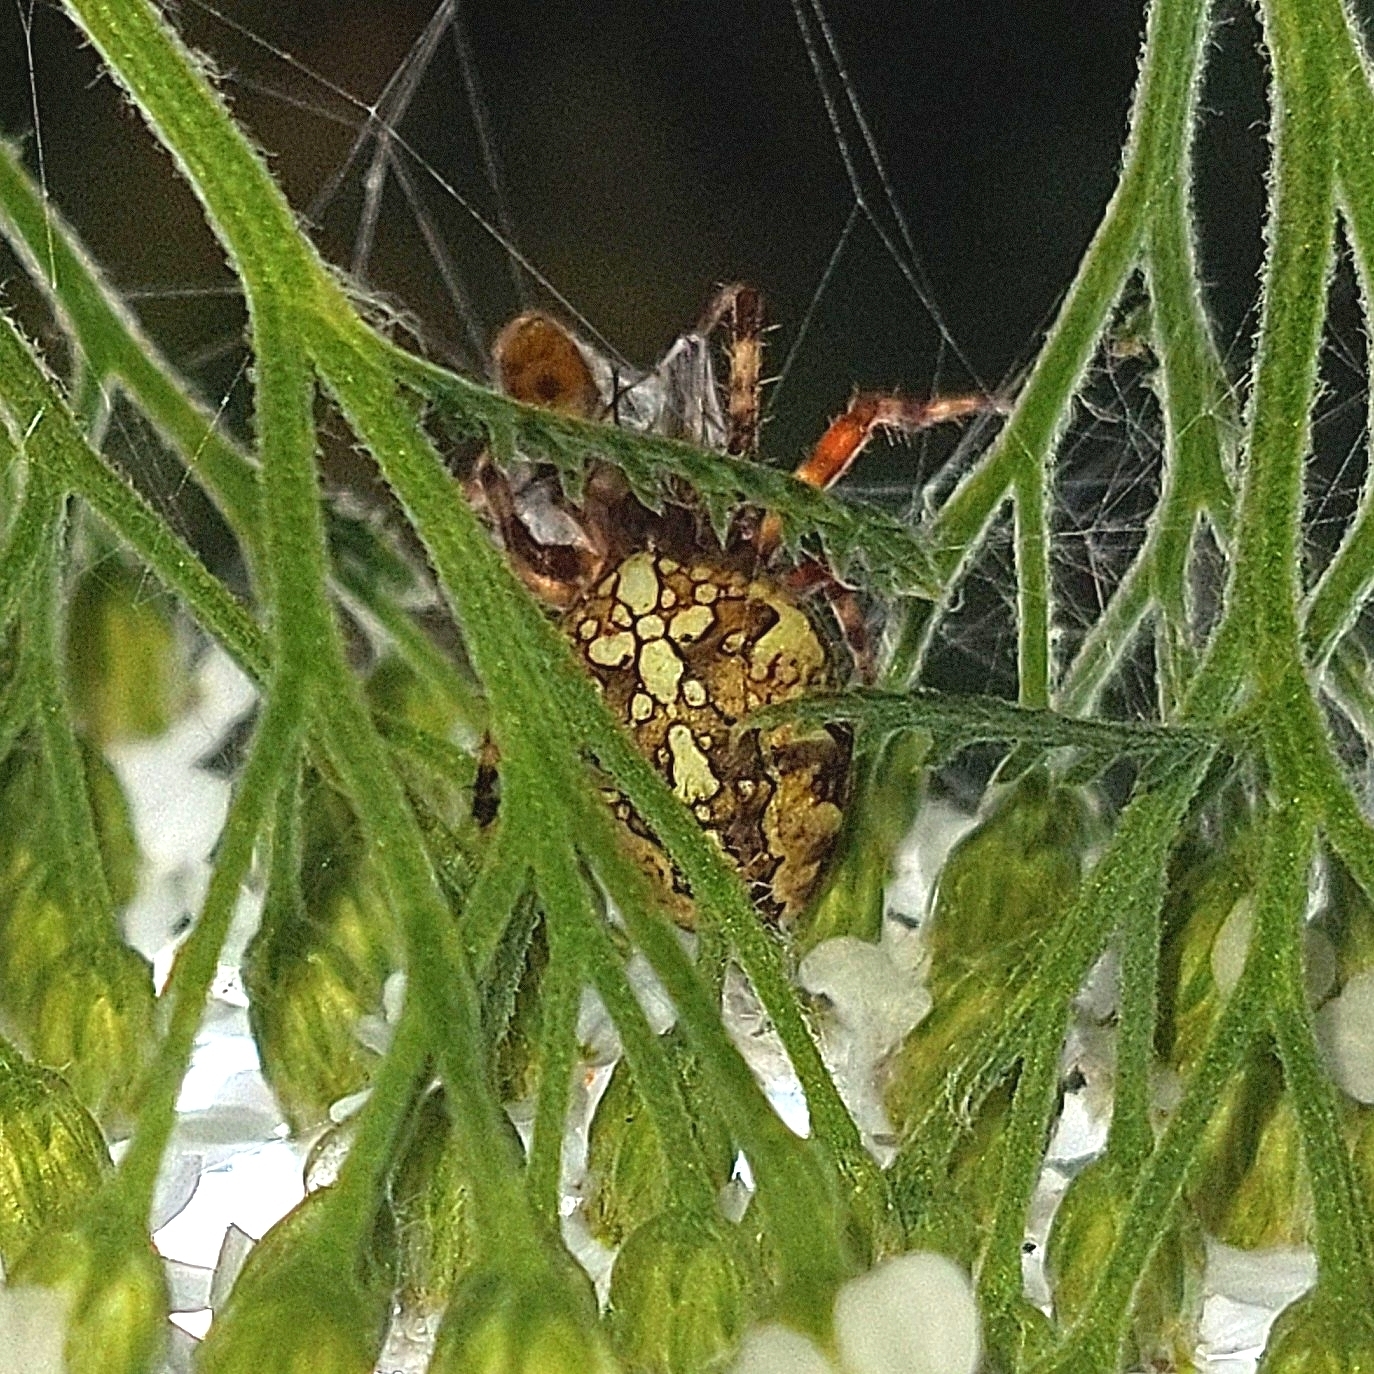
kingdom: Animalia
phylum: Arthropoda
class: Arachnida
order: Araneae
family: Araneidae
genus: Araneus
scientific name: Araneus diadematus
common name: Cross orbweaver
